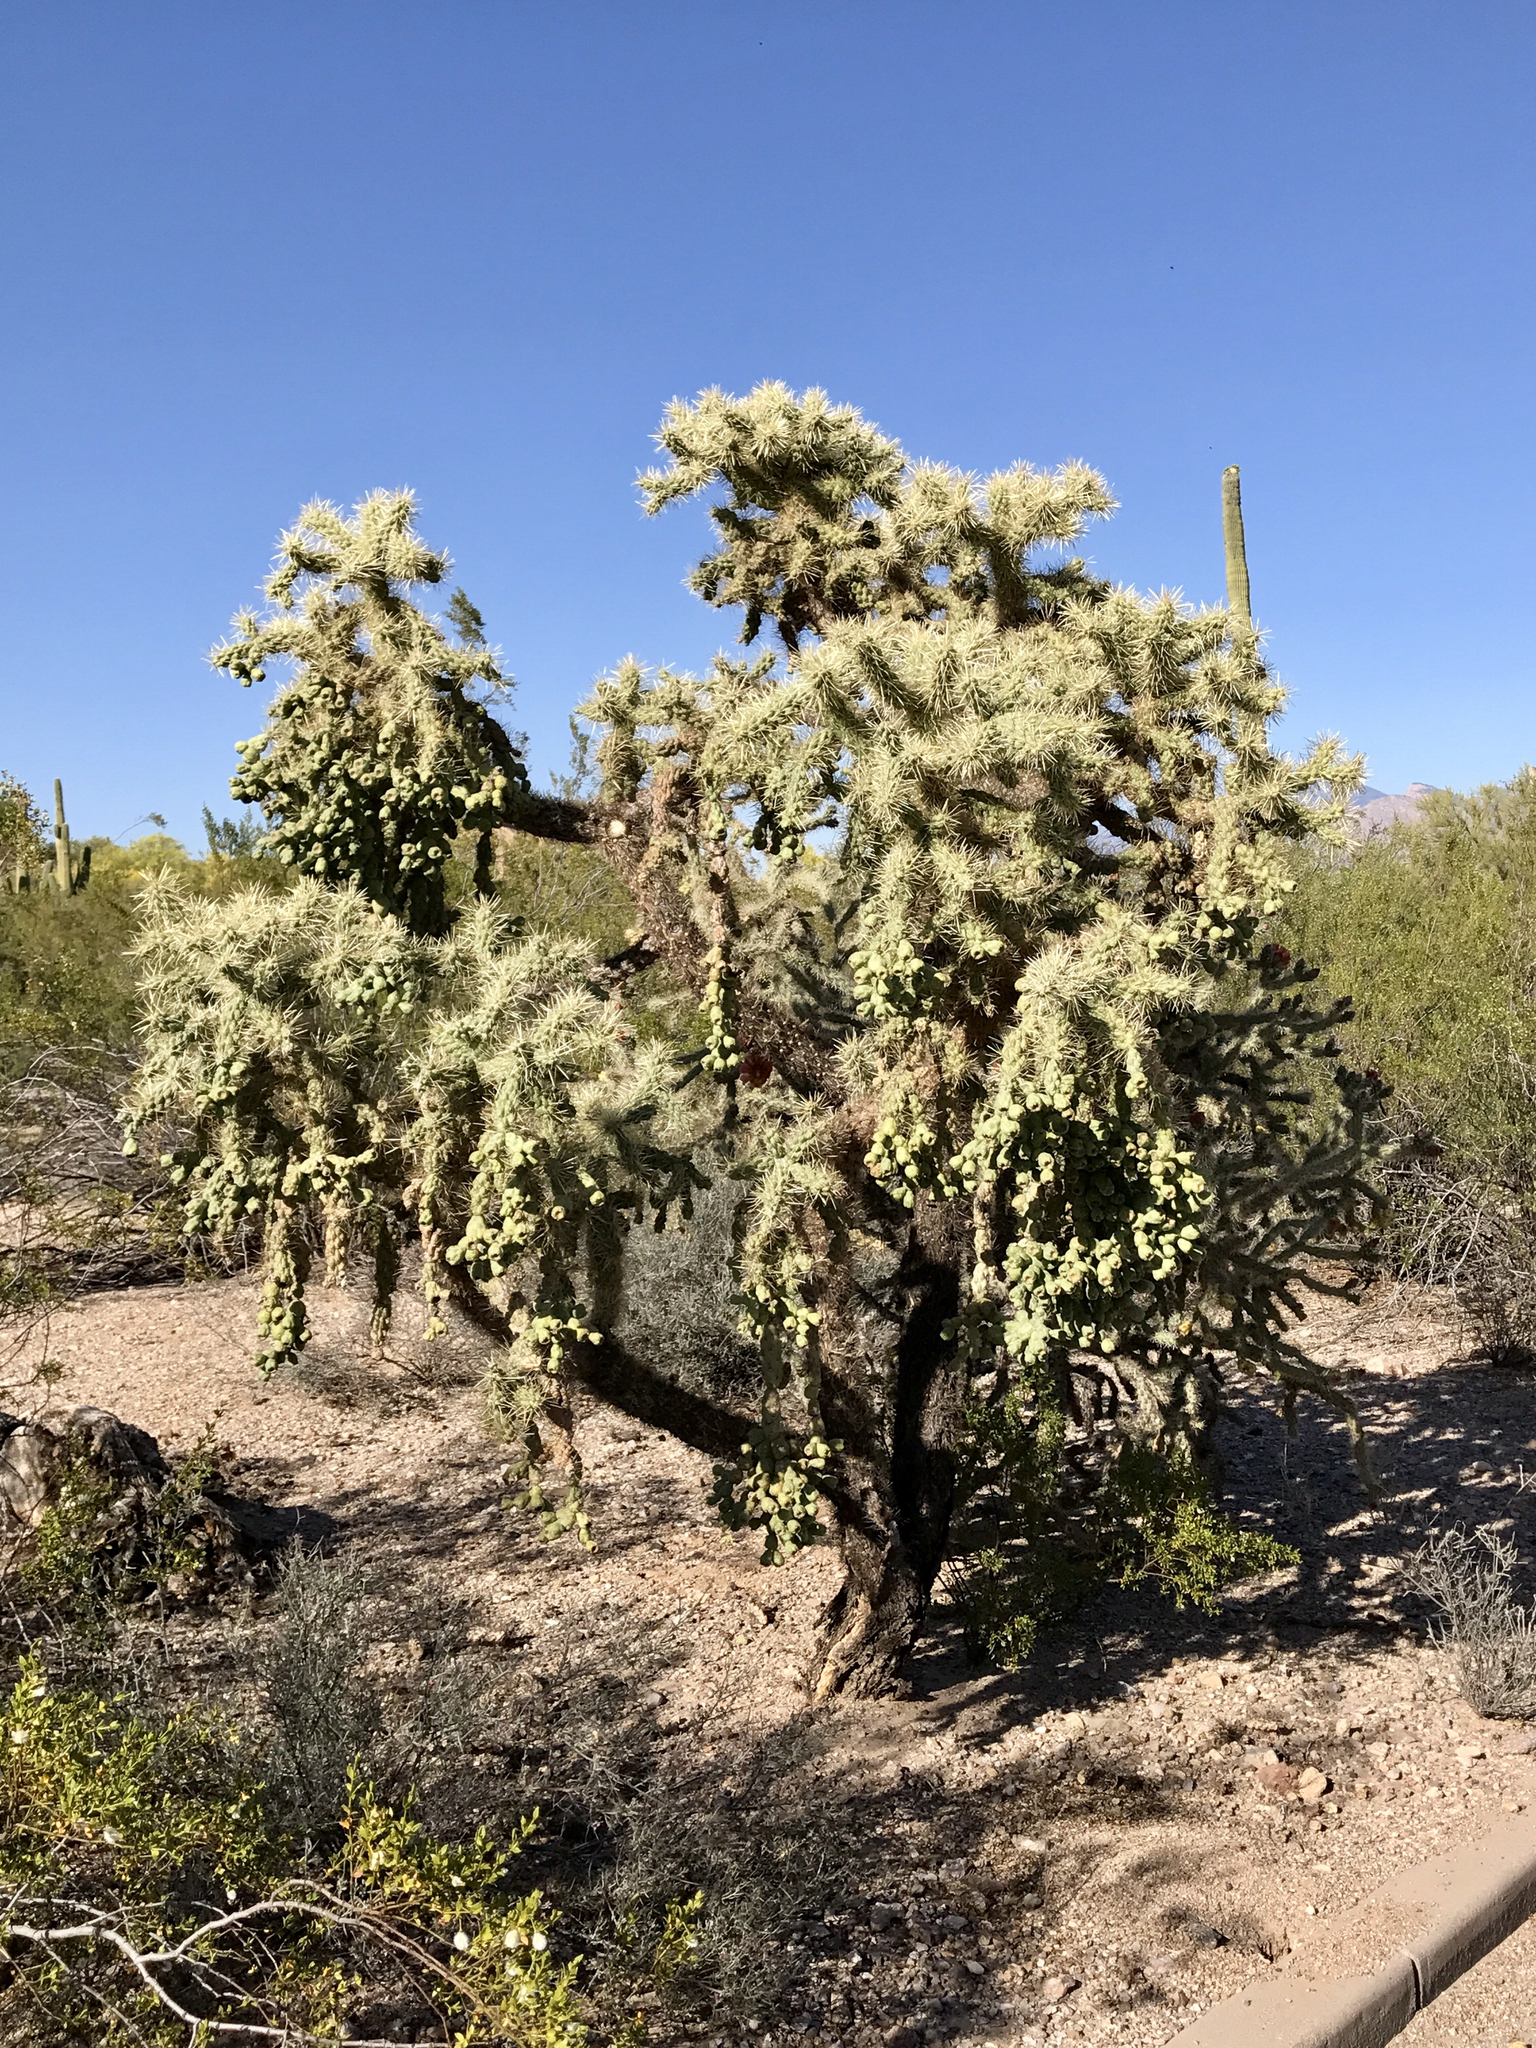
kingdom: Plantae
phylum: Tracheophyta
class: Magnoliopsida
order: Caryophyllales
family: Cactaceae
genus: Cylindropuntia
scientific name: Cylindropuntia fulgida
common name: Jumping cholla
